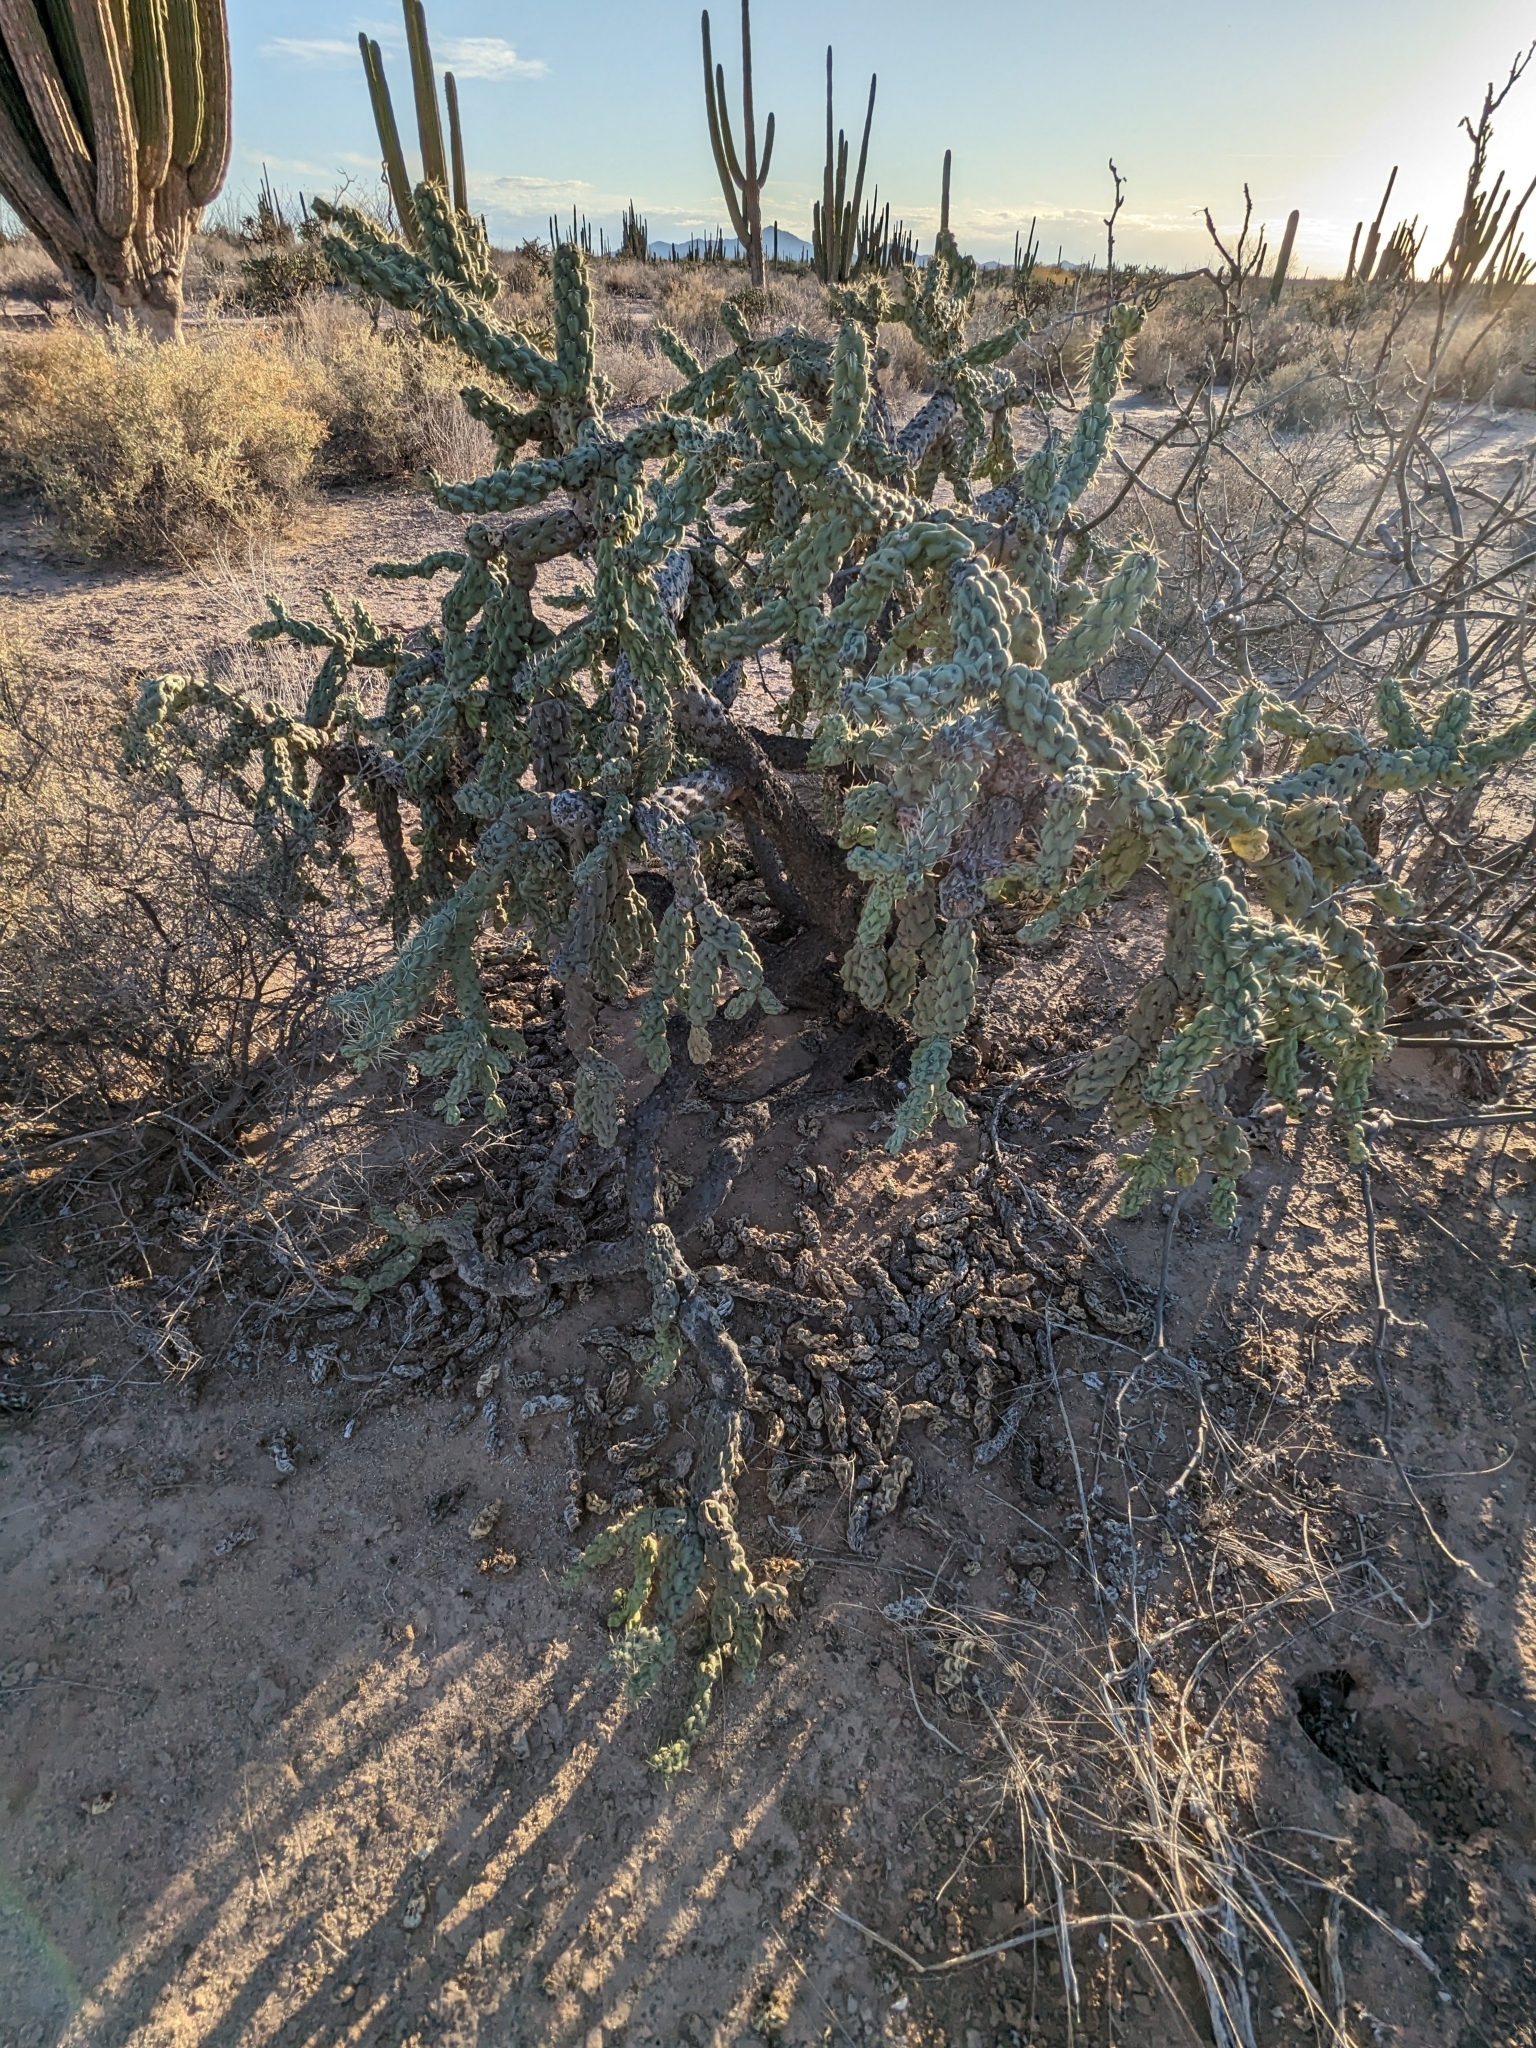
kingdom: Plantae
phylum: Tracheophyta
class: Magnoliopsida
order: Caryophyllales
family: Cactaceae
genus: Cylindropuntia
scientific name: Cylindropuntia fulgida
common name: Jumping cholla
